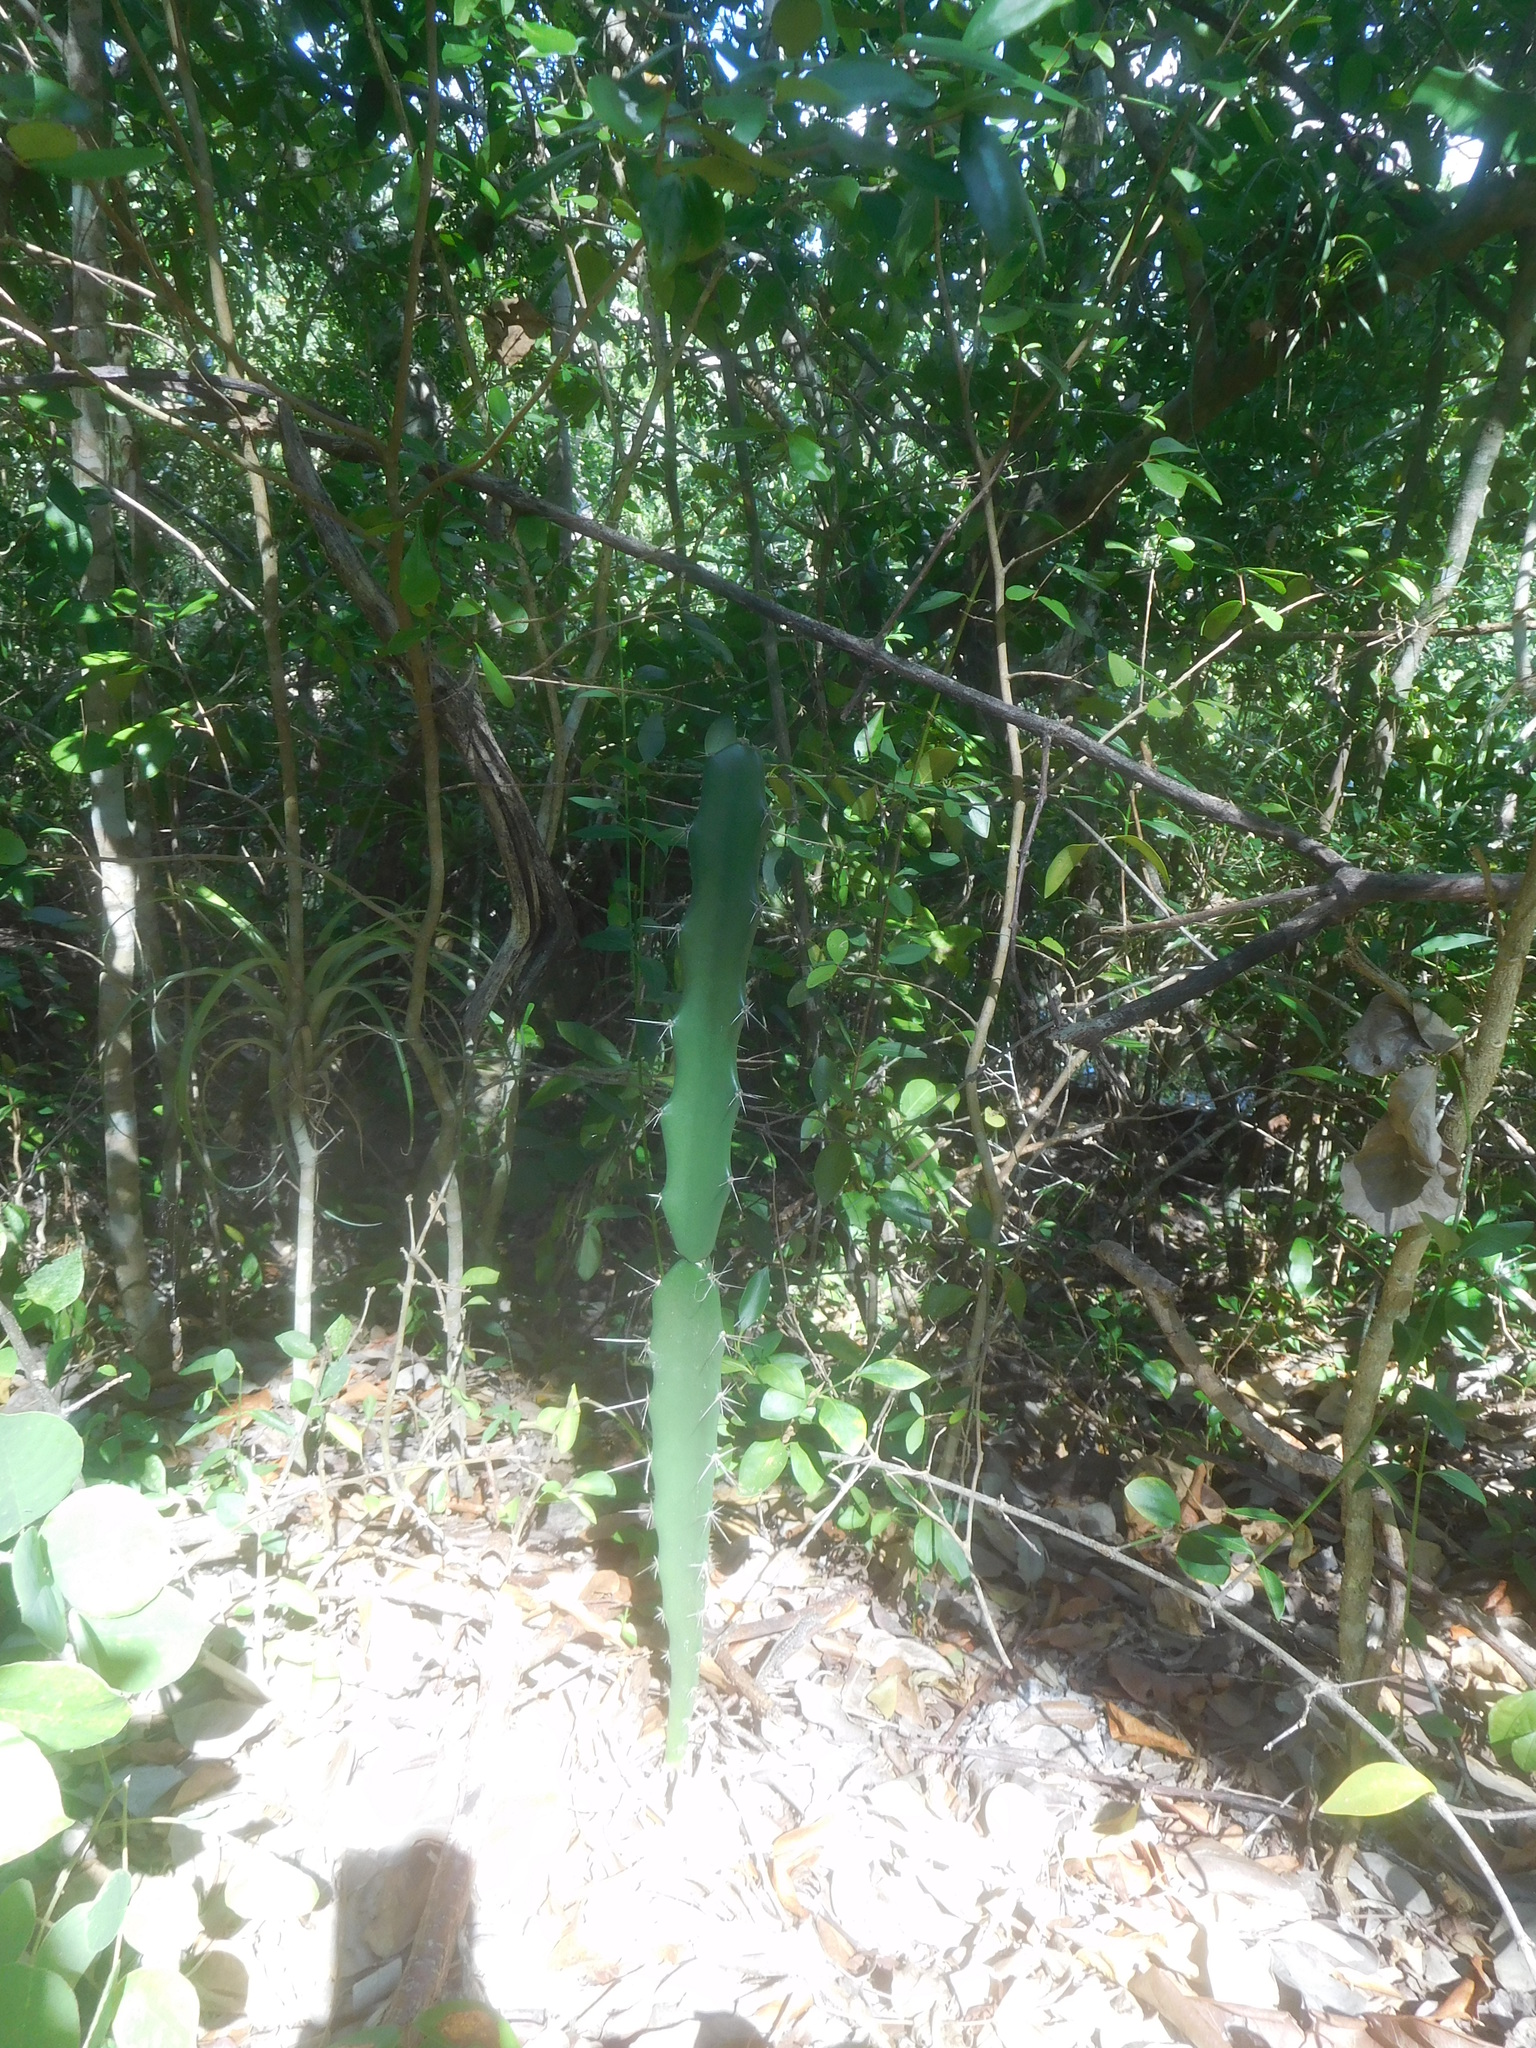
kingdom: Plantae
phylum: Tracheophyta
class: Magnoliopsida
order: Caryophyllales
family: Cactaceae
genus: Acanthocereus
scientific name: Acanthocereus tetragonus
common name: Triangle cactus
